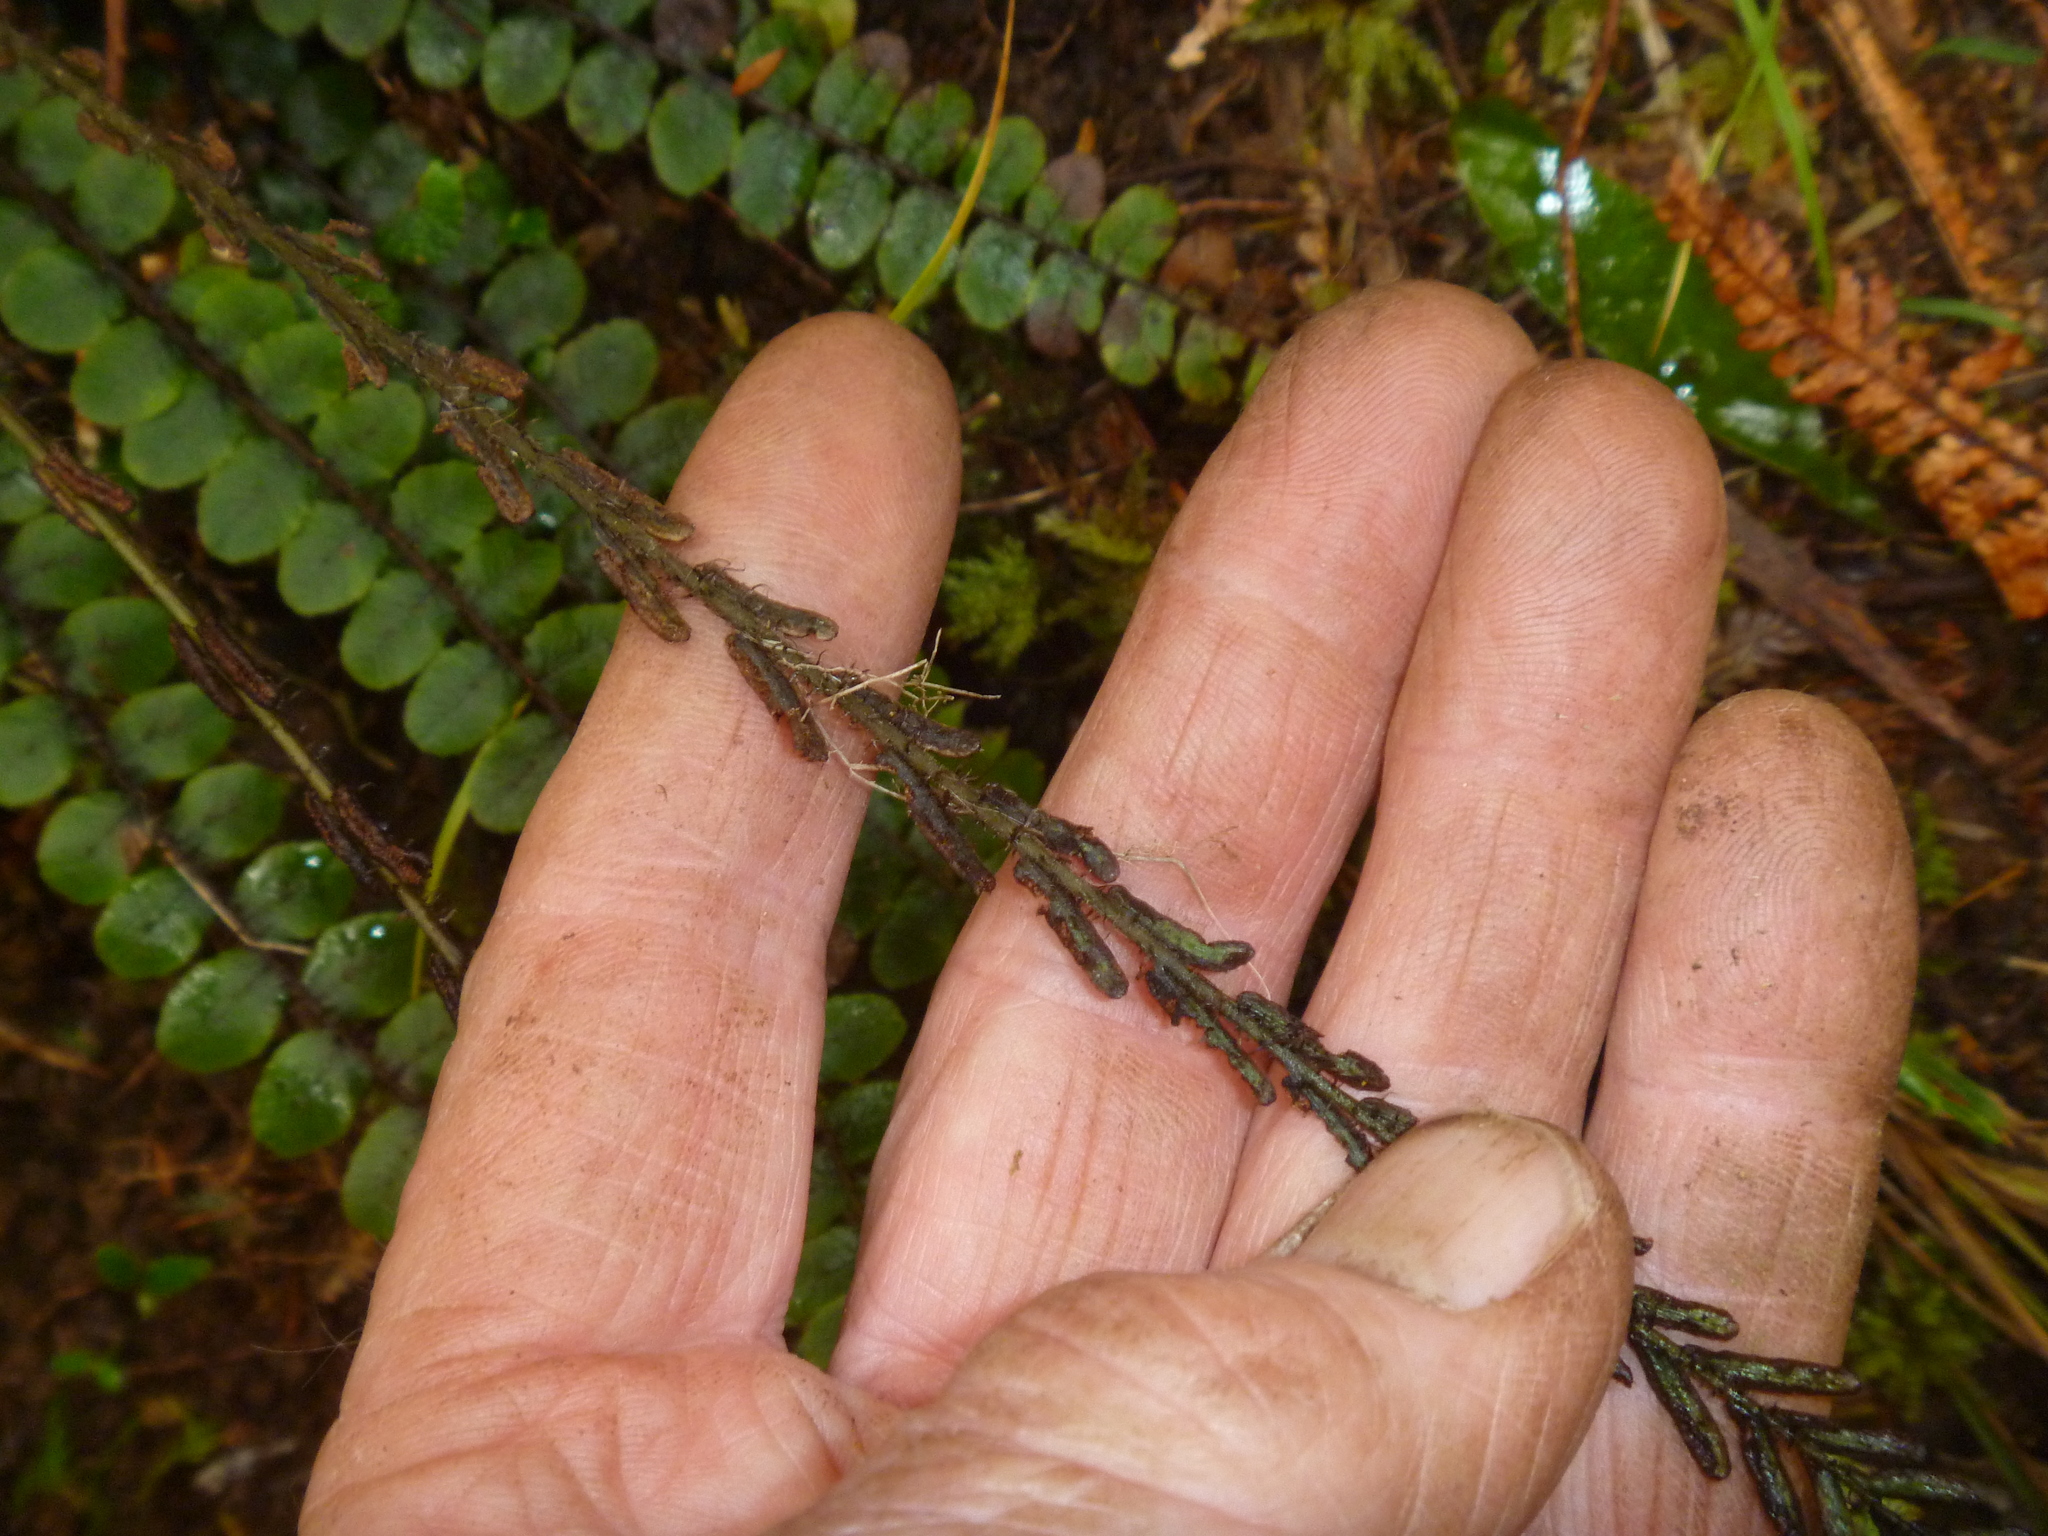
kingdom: Plantae
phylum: Tracheophyta
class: Polypodiopsida
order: Polypodiales
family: Blechnaceae
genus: Cranfillia
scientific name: Cranfillia fluviatilis
